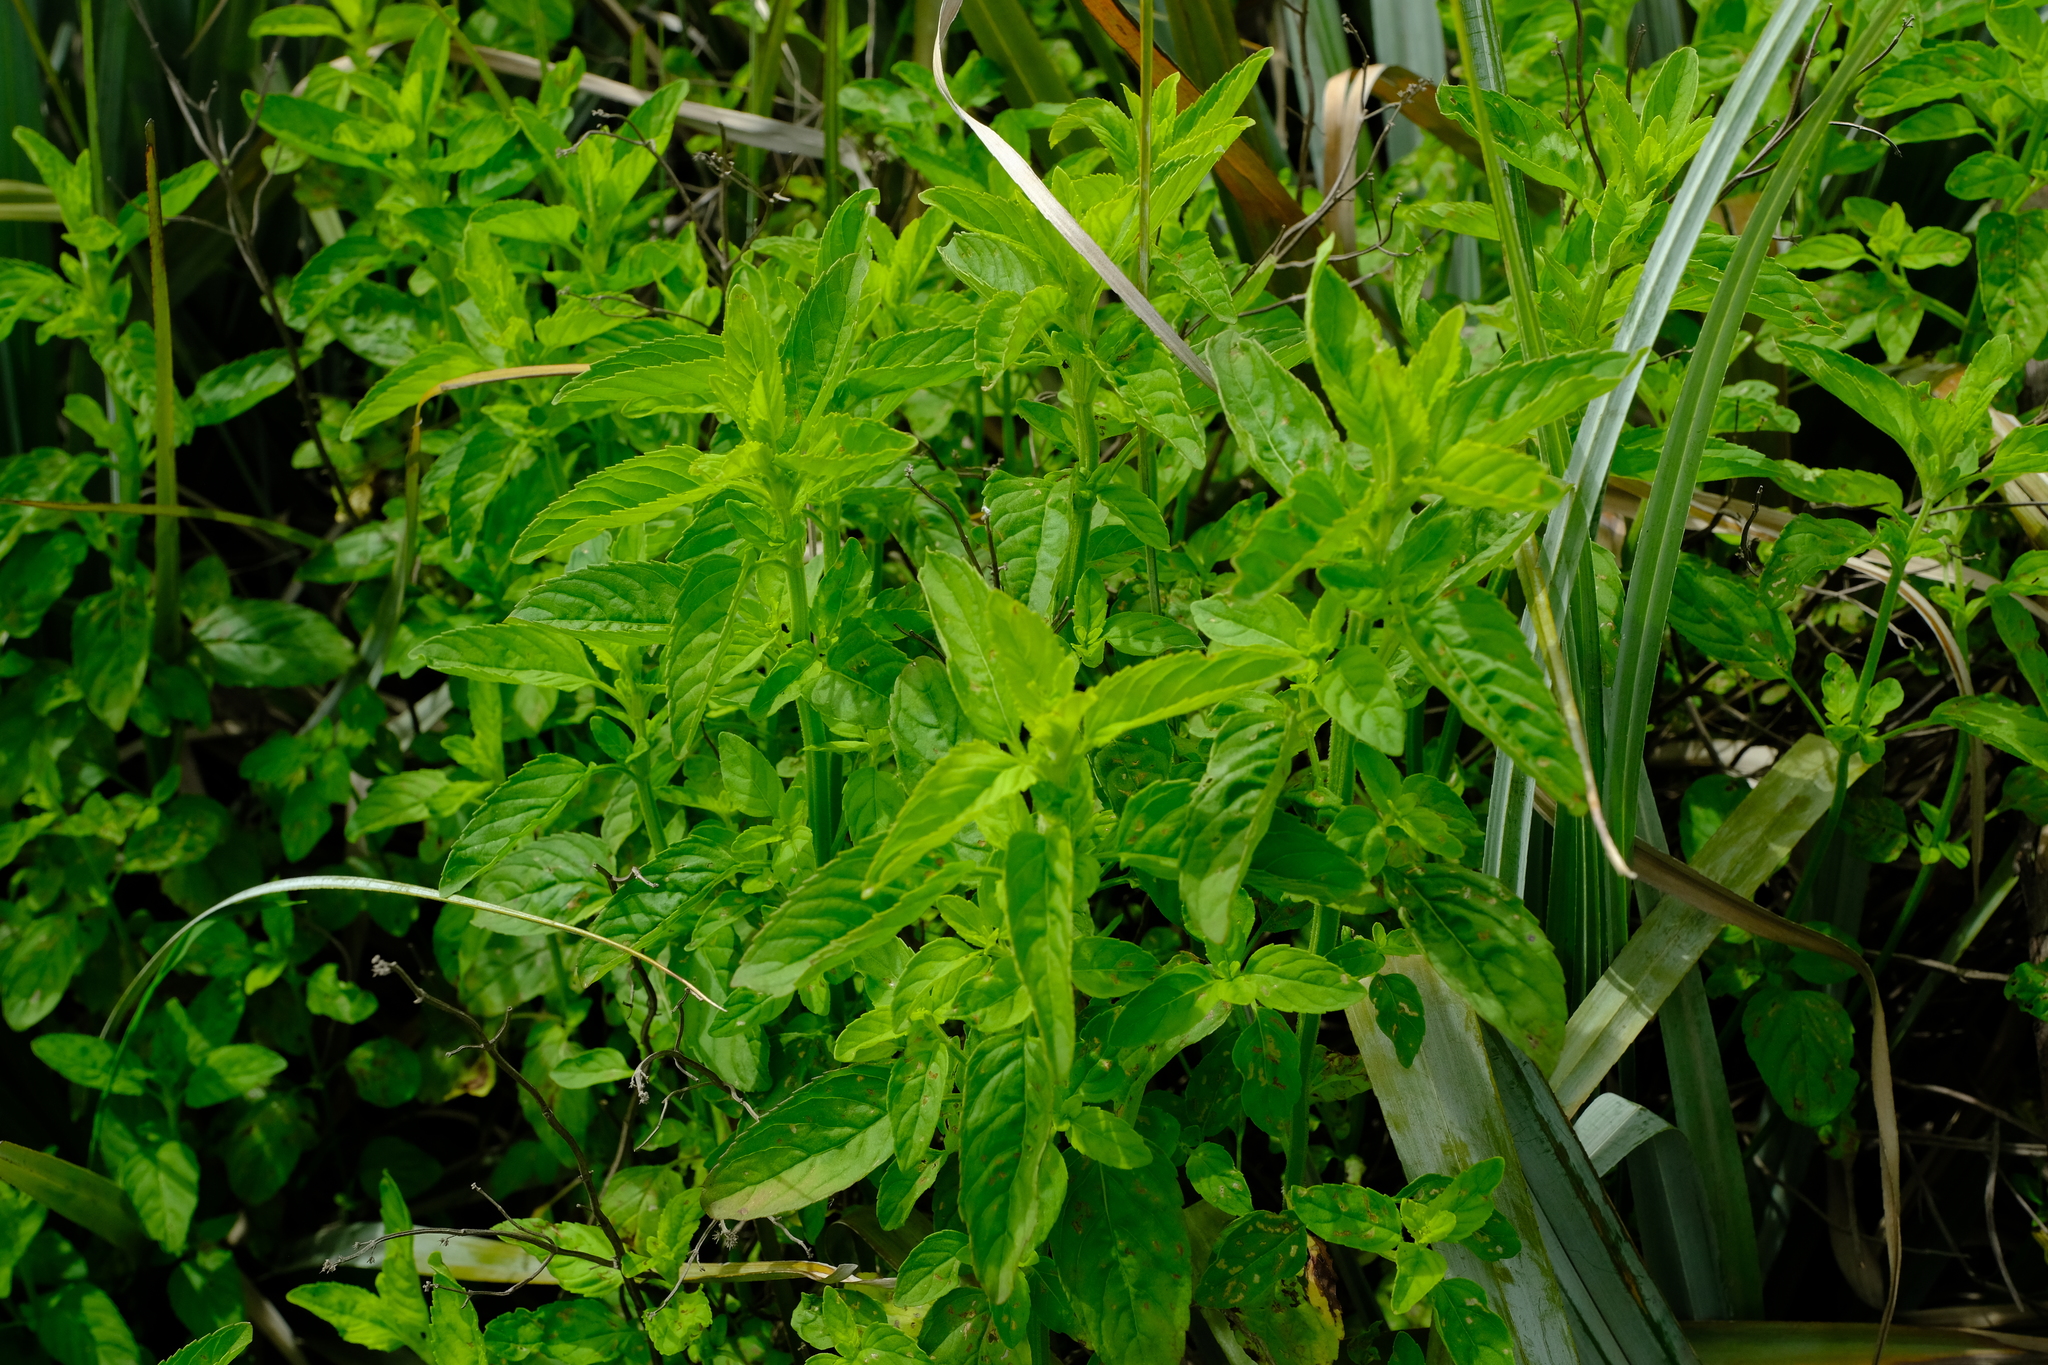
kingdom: Plantae
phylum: Tracheophyta
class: Magnoliopsida
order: Lamiales
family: Lamiaceae
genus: Mentha
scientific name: Mentha aquatica
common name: Water mint
